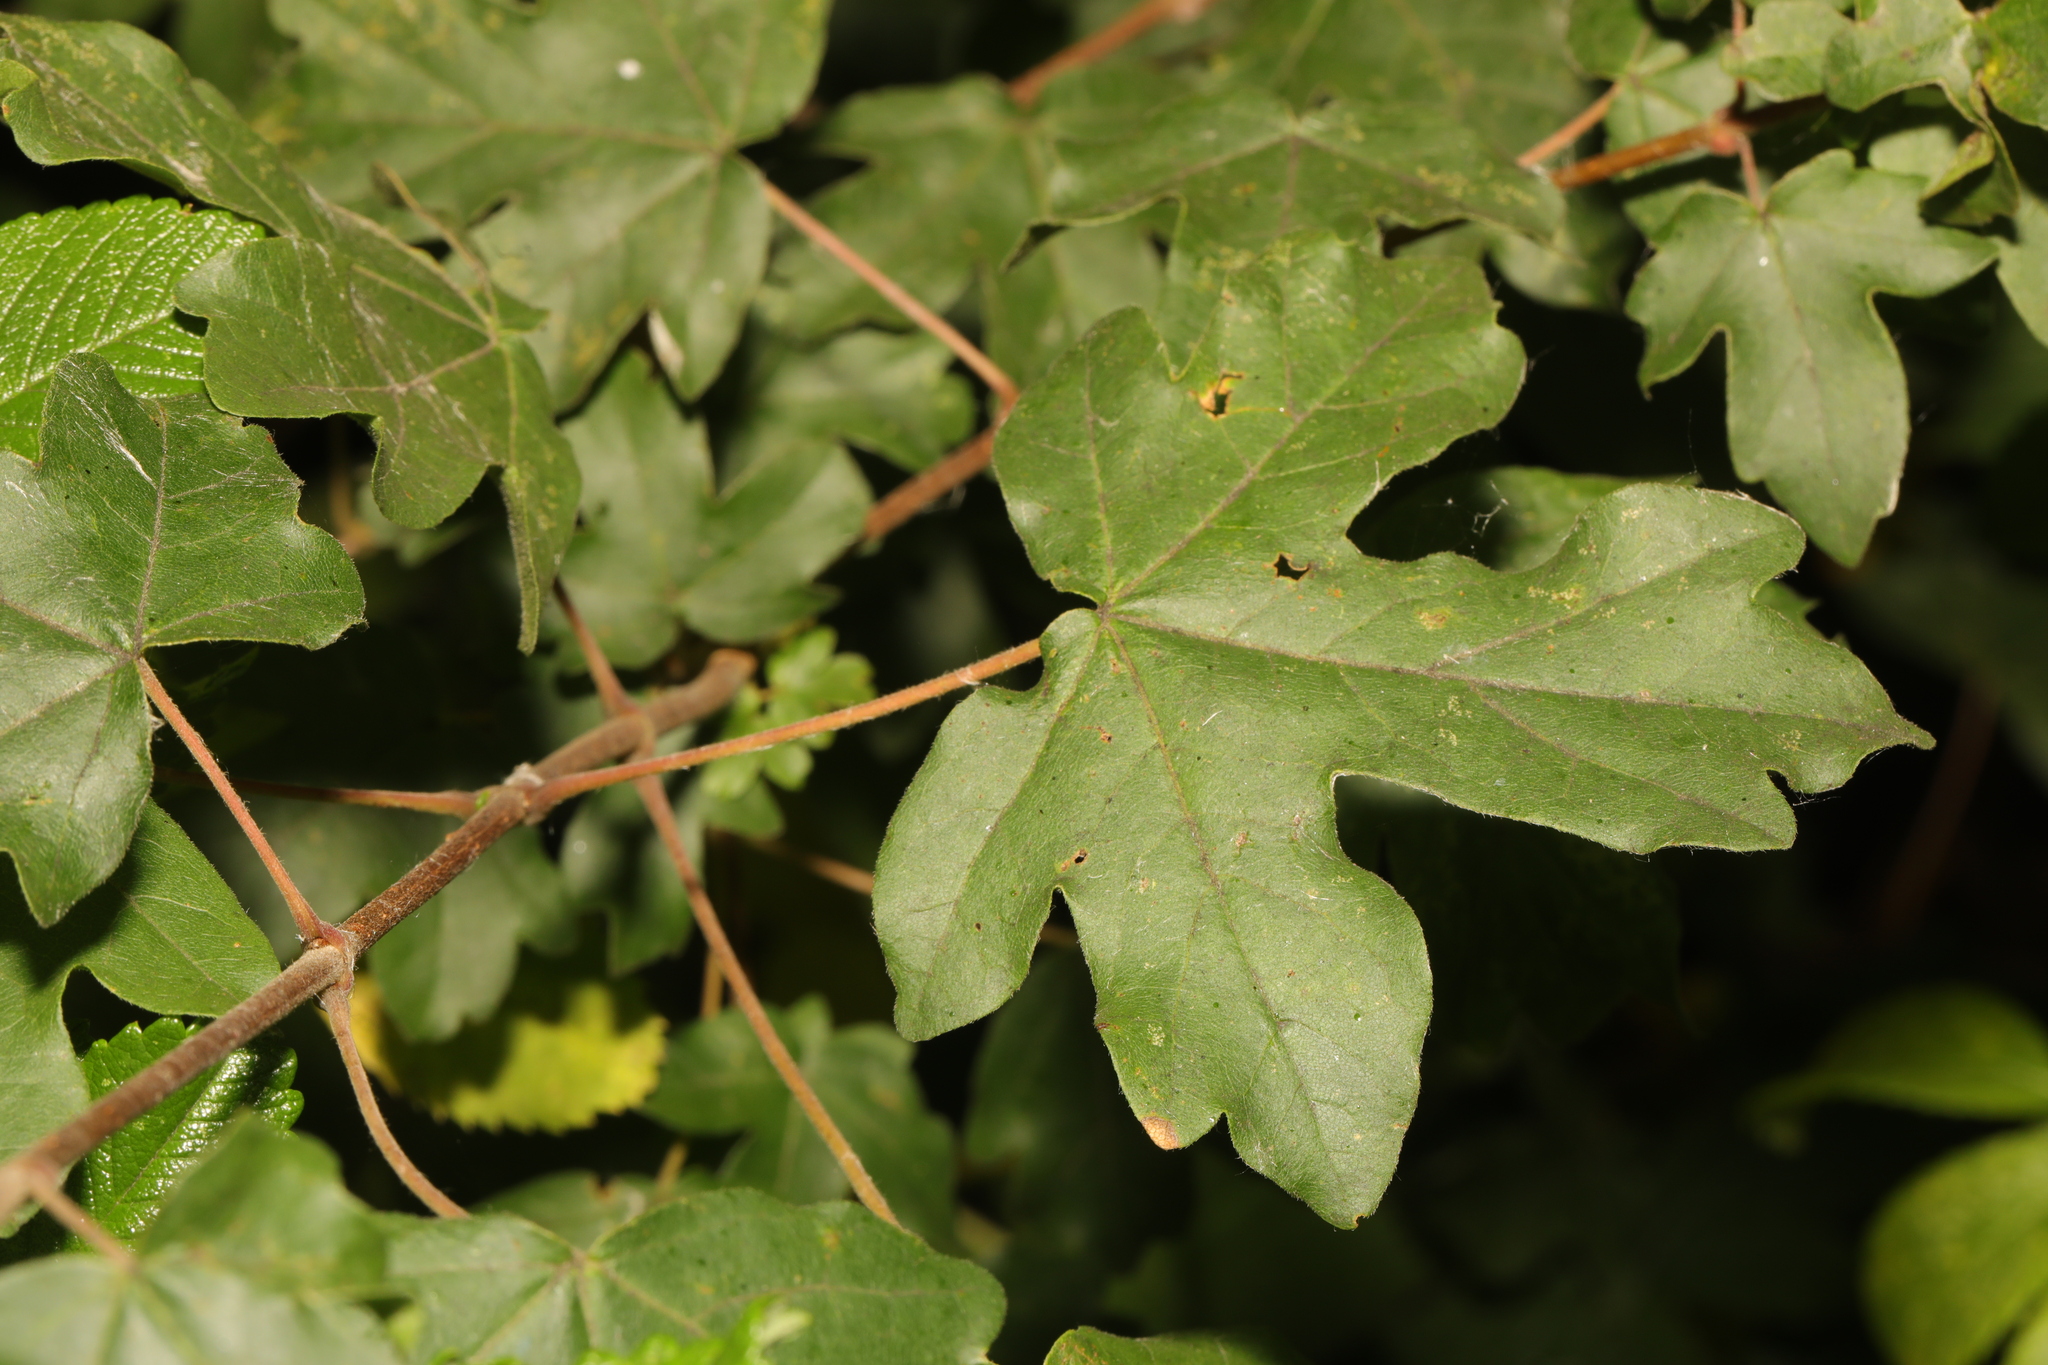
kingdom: Plantae
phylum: Tracheophyta
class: Magnoliopsida
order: Sapindales
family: Sapindaceae
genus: Acer
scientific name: Acer campestre
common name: Field maple
